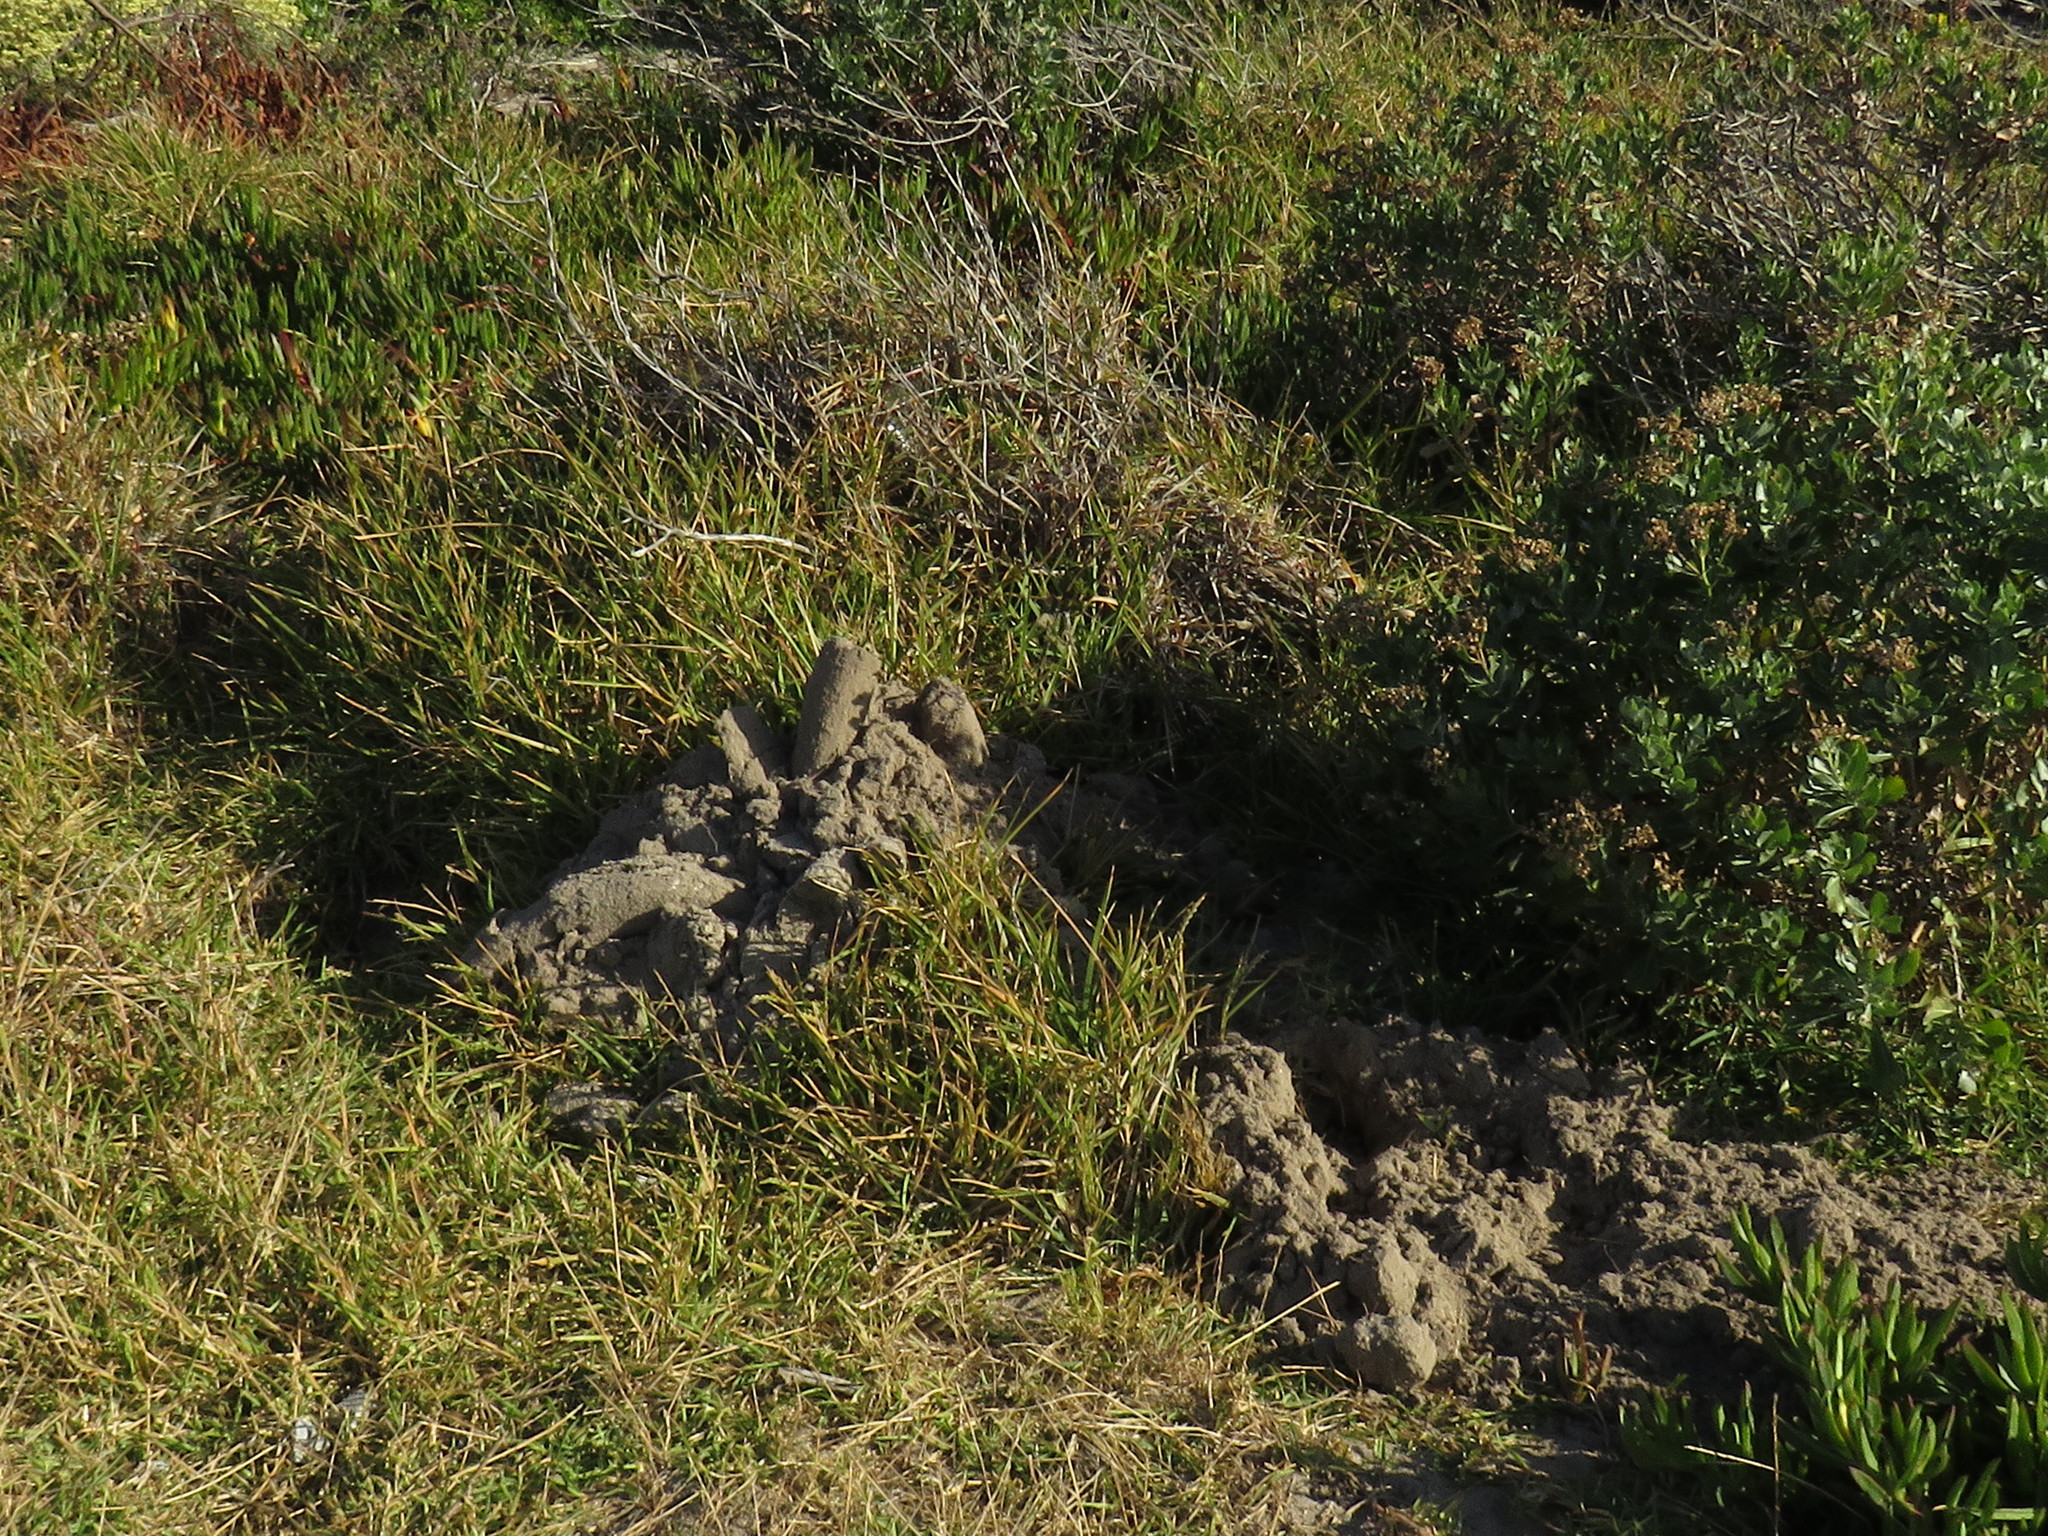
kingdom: Animalia
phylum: Chordata
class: Mammalia
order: Rodentia
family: Bathyergidae
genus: Bathyergus
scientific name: Bathyergus suillus
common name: Cape dune mole rat
